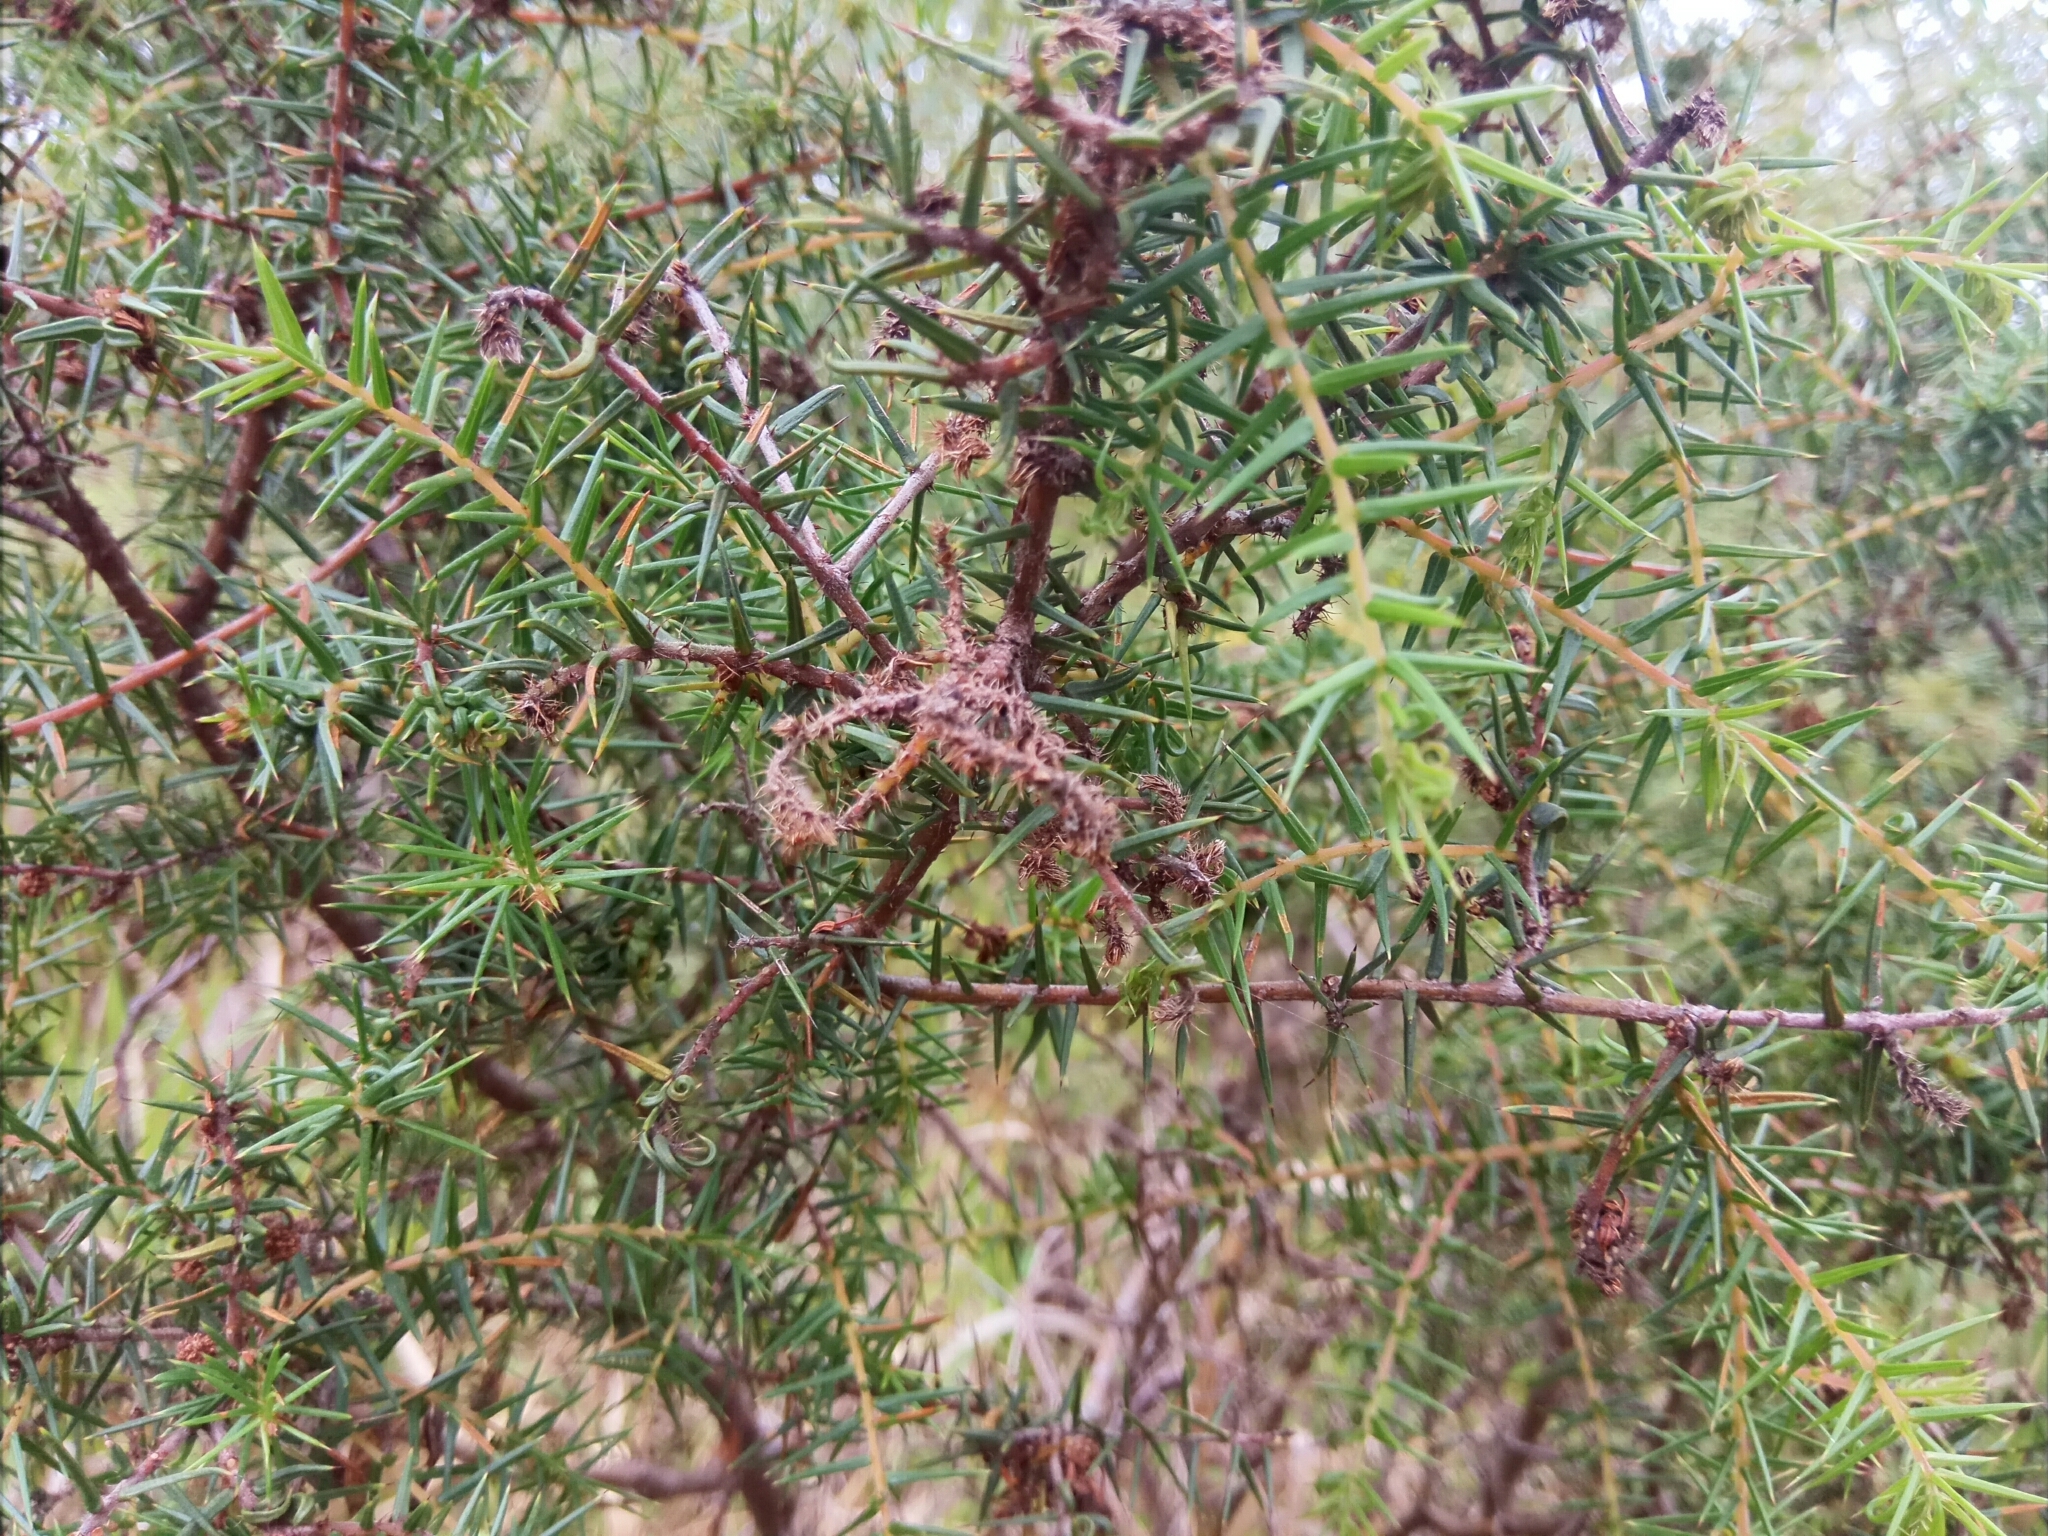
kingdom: Plantae
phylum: Tracheophyta
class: Magnoliopsida
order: Fabales
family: Fabaceae
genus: Acacia
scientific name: Acacia ulicifolia
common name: Juniper wattle
